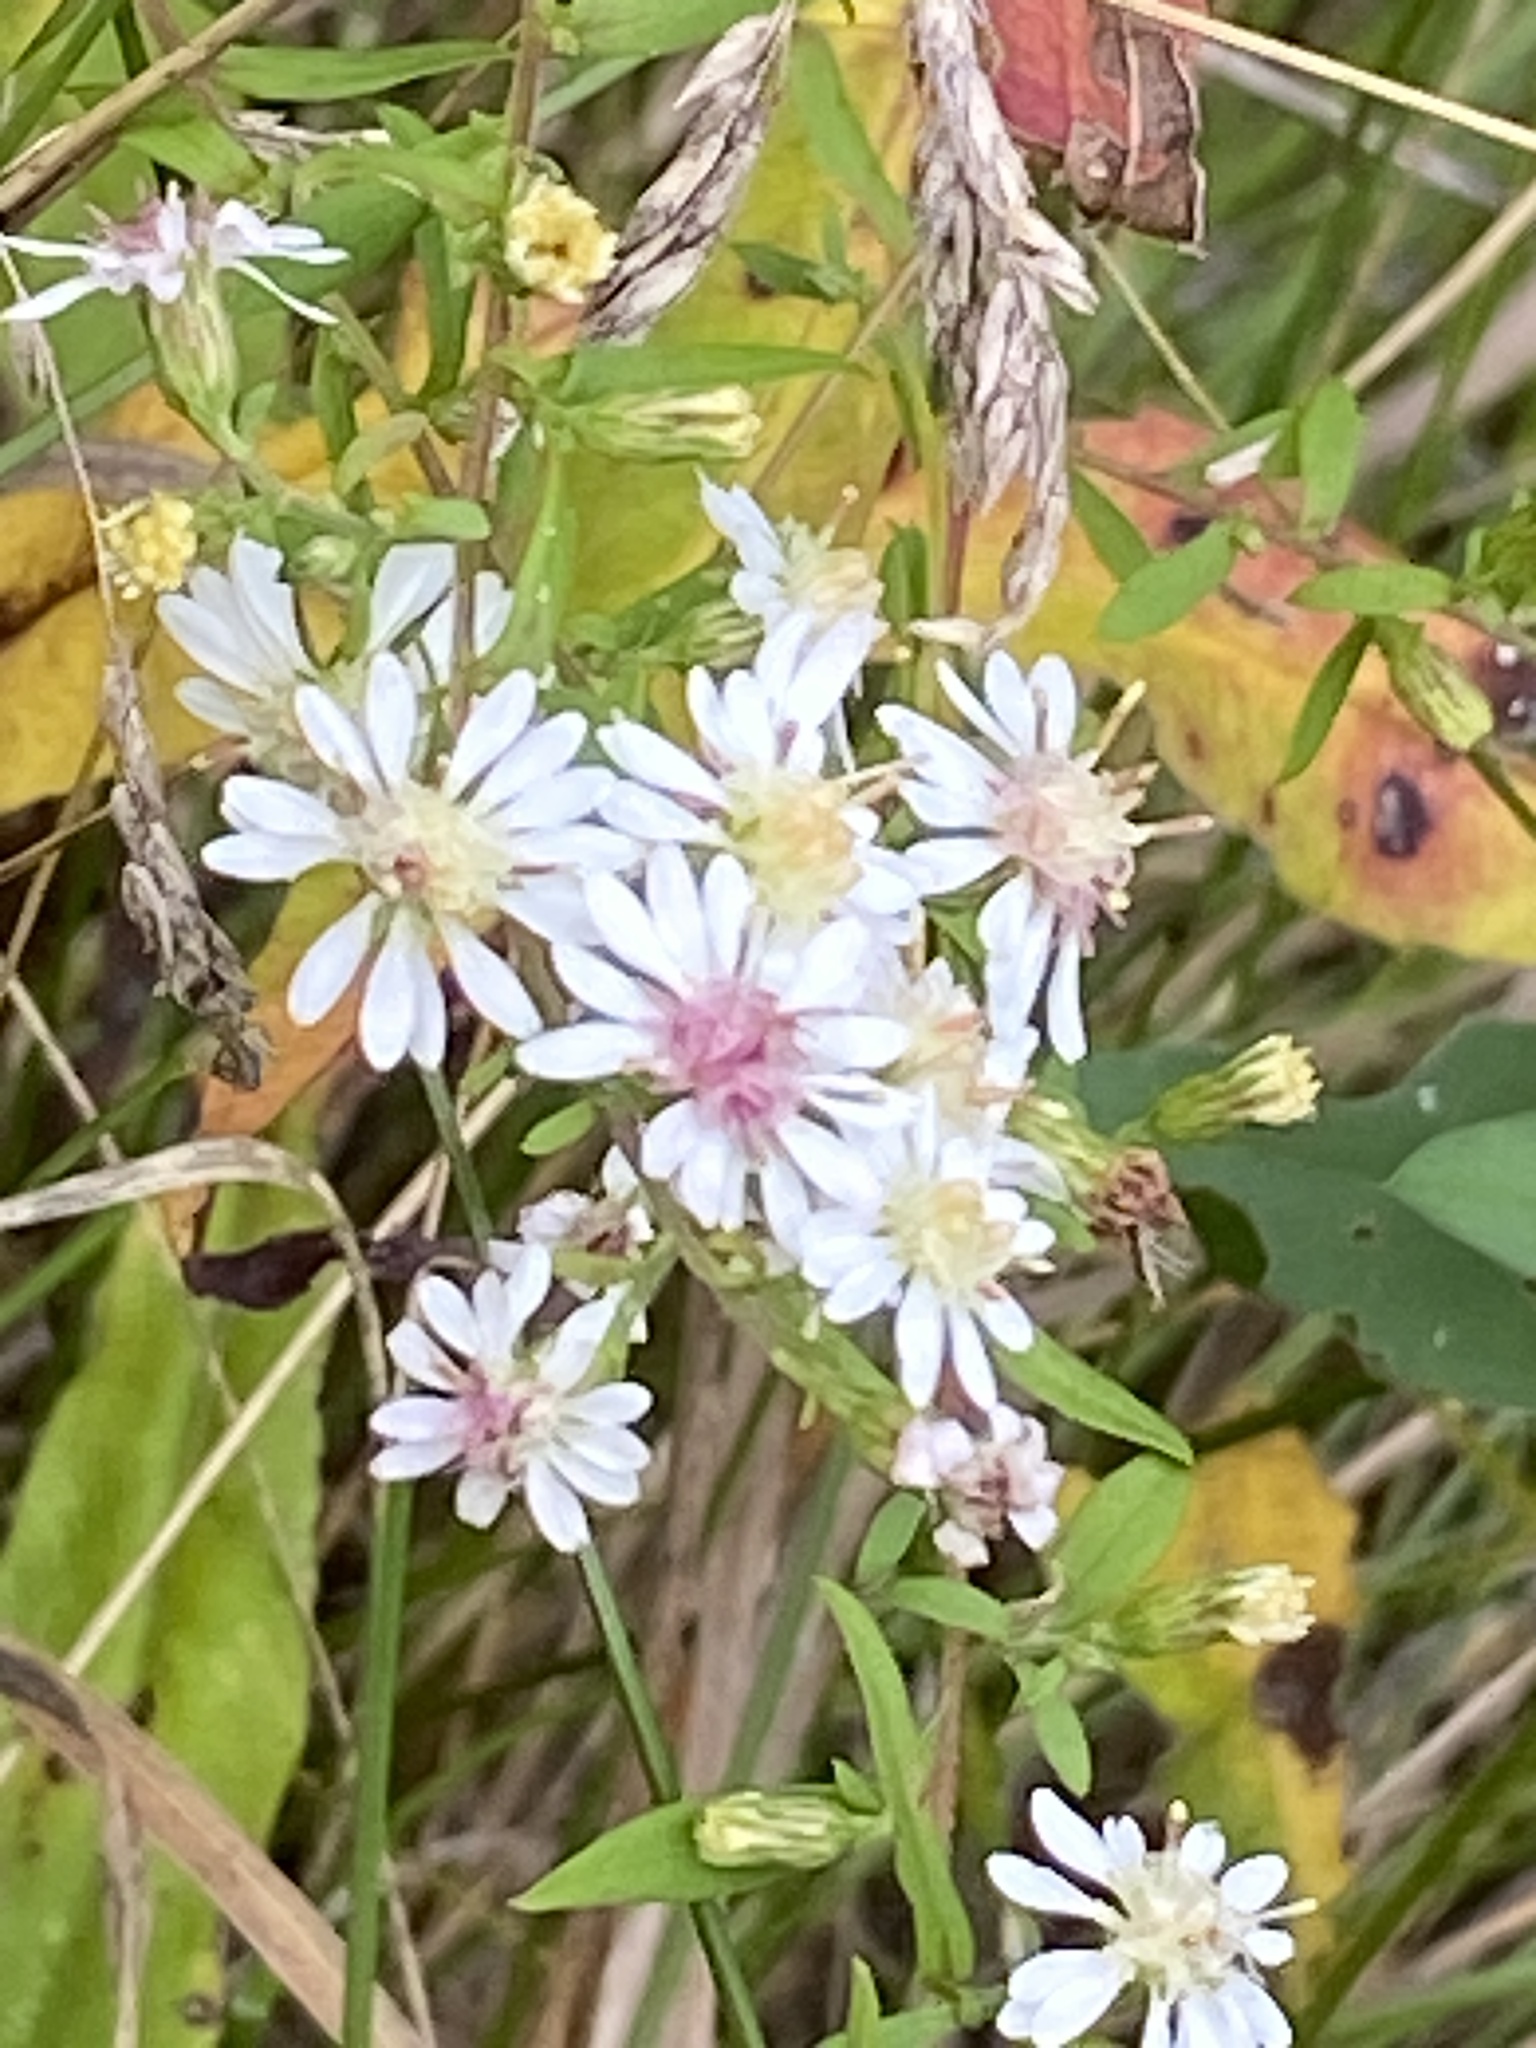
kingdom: Plantae
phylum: Tracheophyta
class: Magnoliopsida
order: Asterales
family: Asteraceae
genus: Symphyotrichum
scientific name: Symphyotrichum lateriflorum
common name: Calico aster
